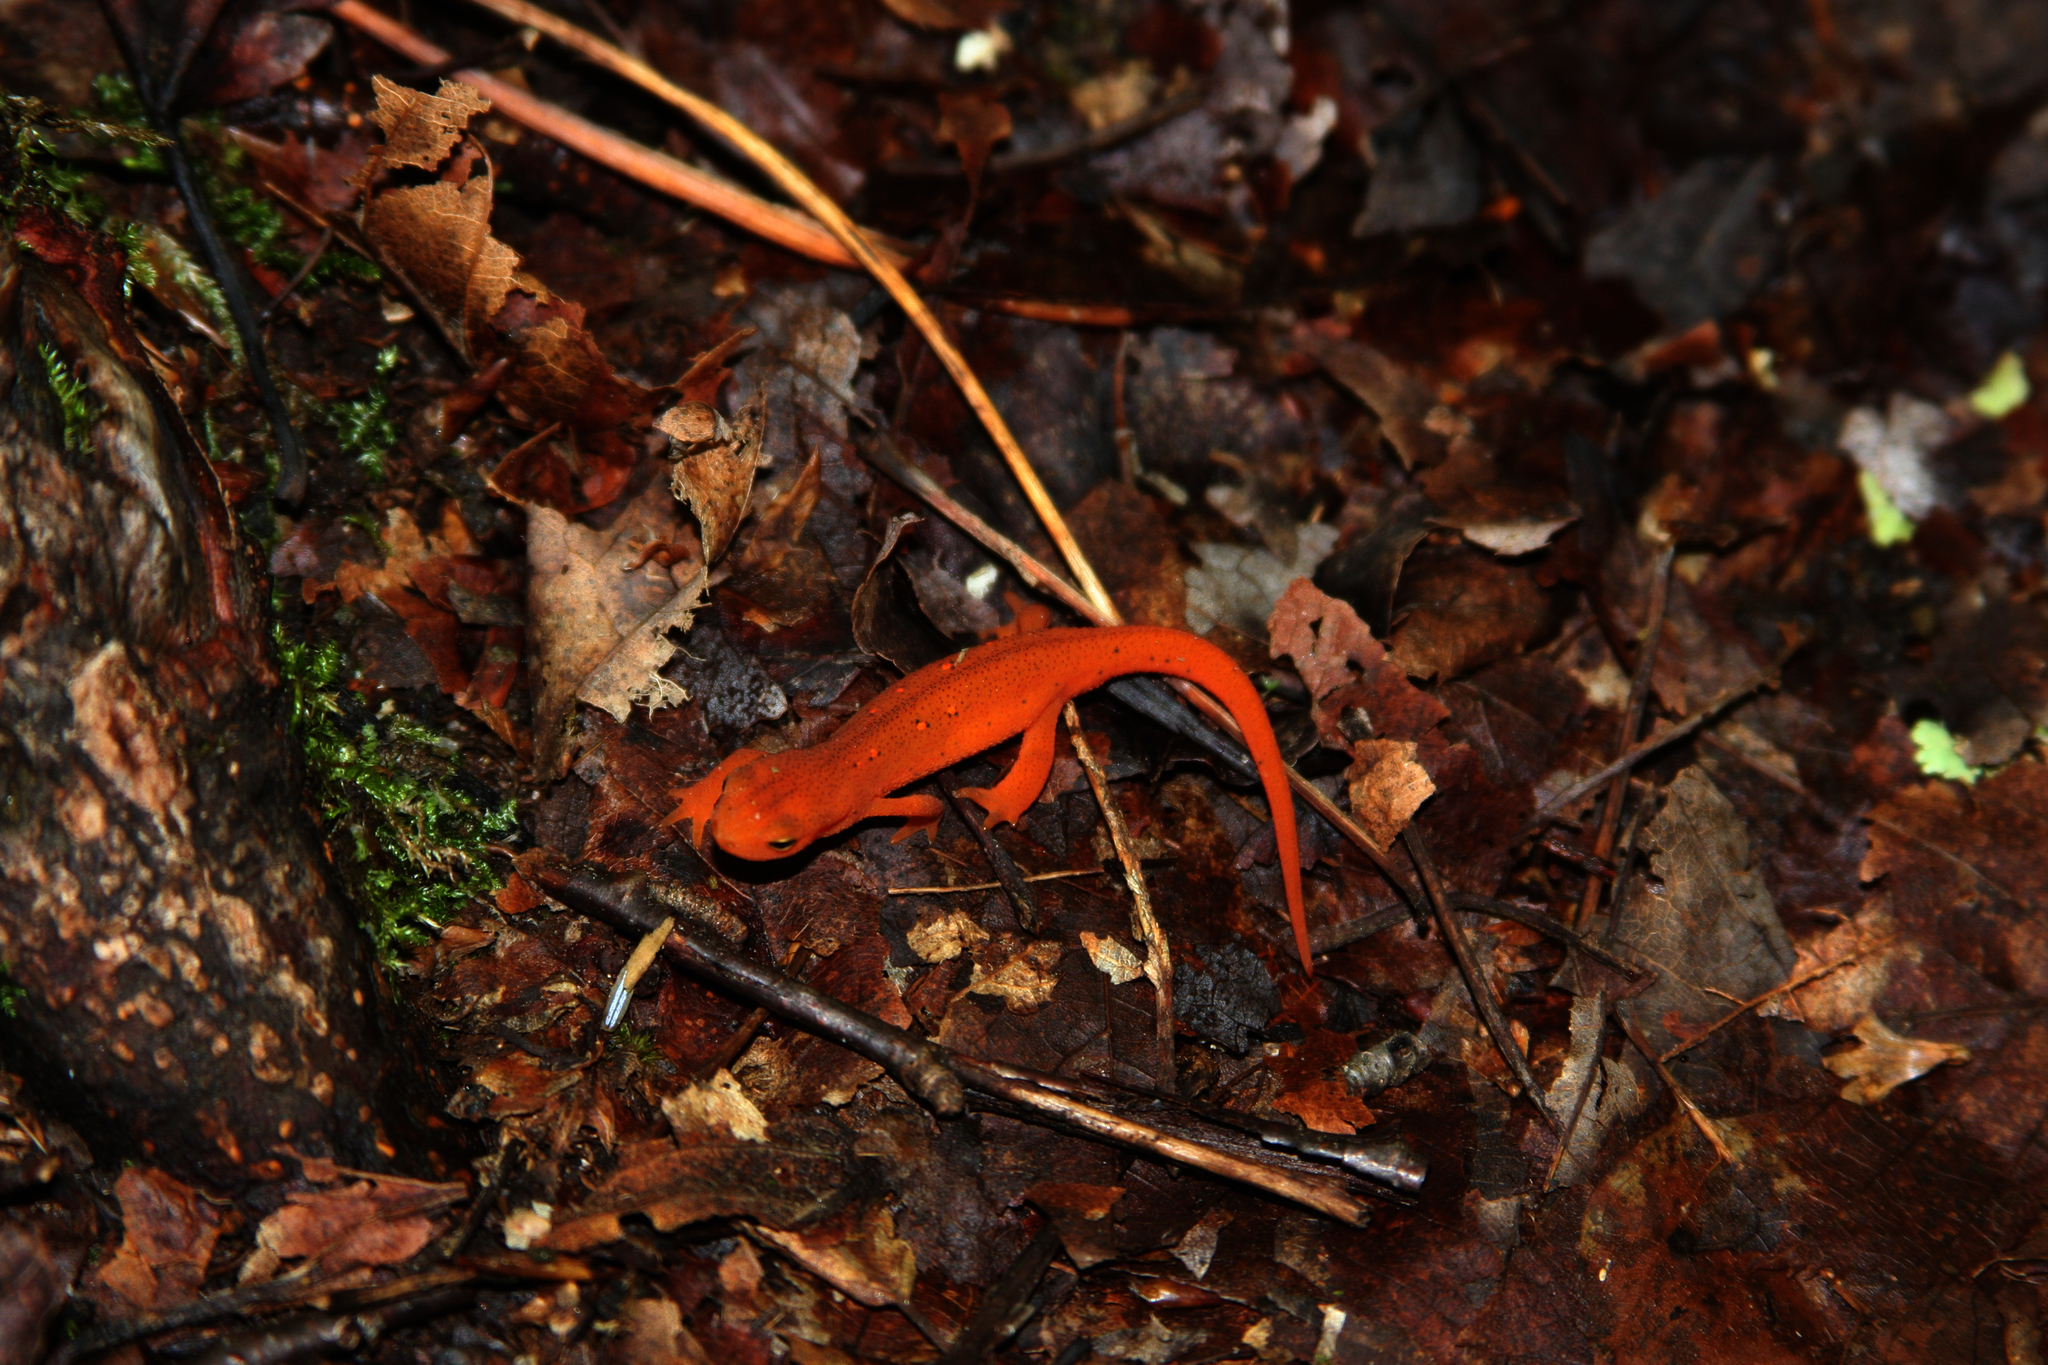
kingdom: Animalia
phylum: Chordata
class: Amphibia
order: Caudata
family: Salamandridae
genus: Notophthalmus
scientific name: Notophthalmus viridescens
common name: Eastern newt
